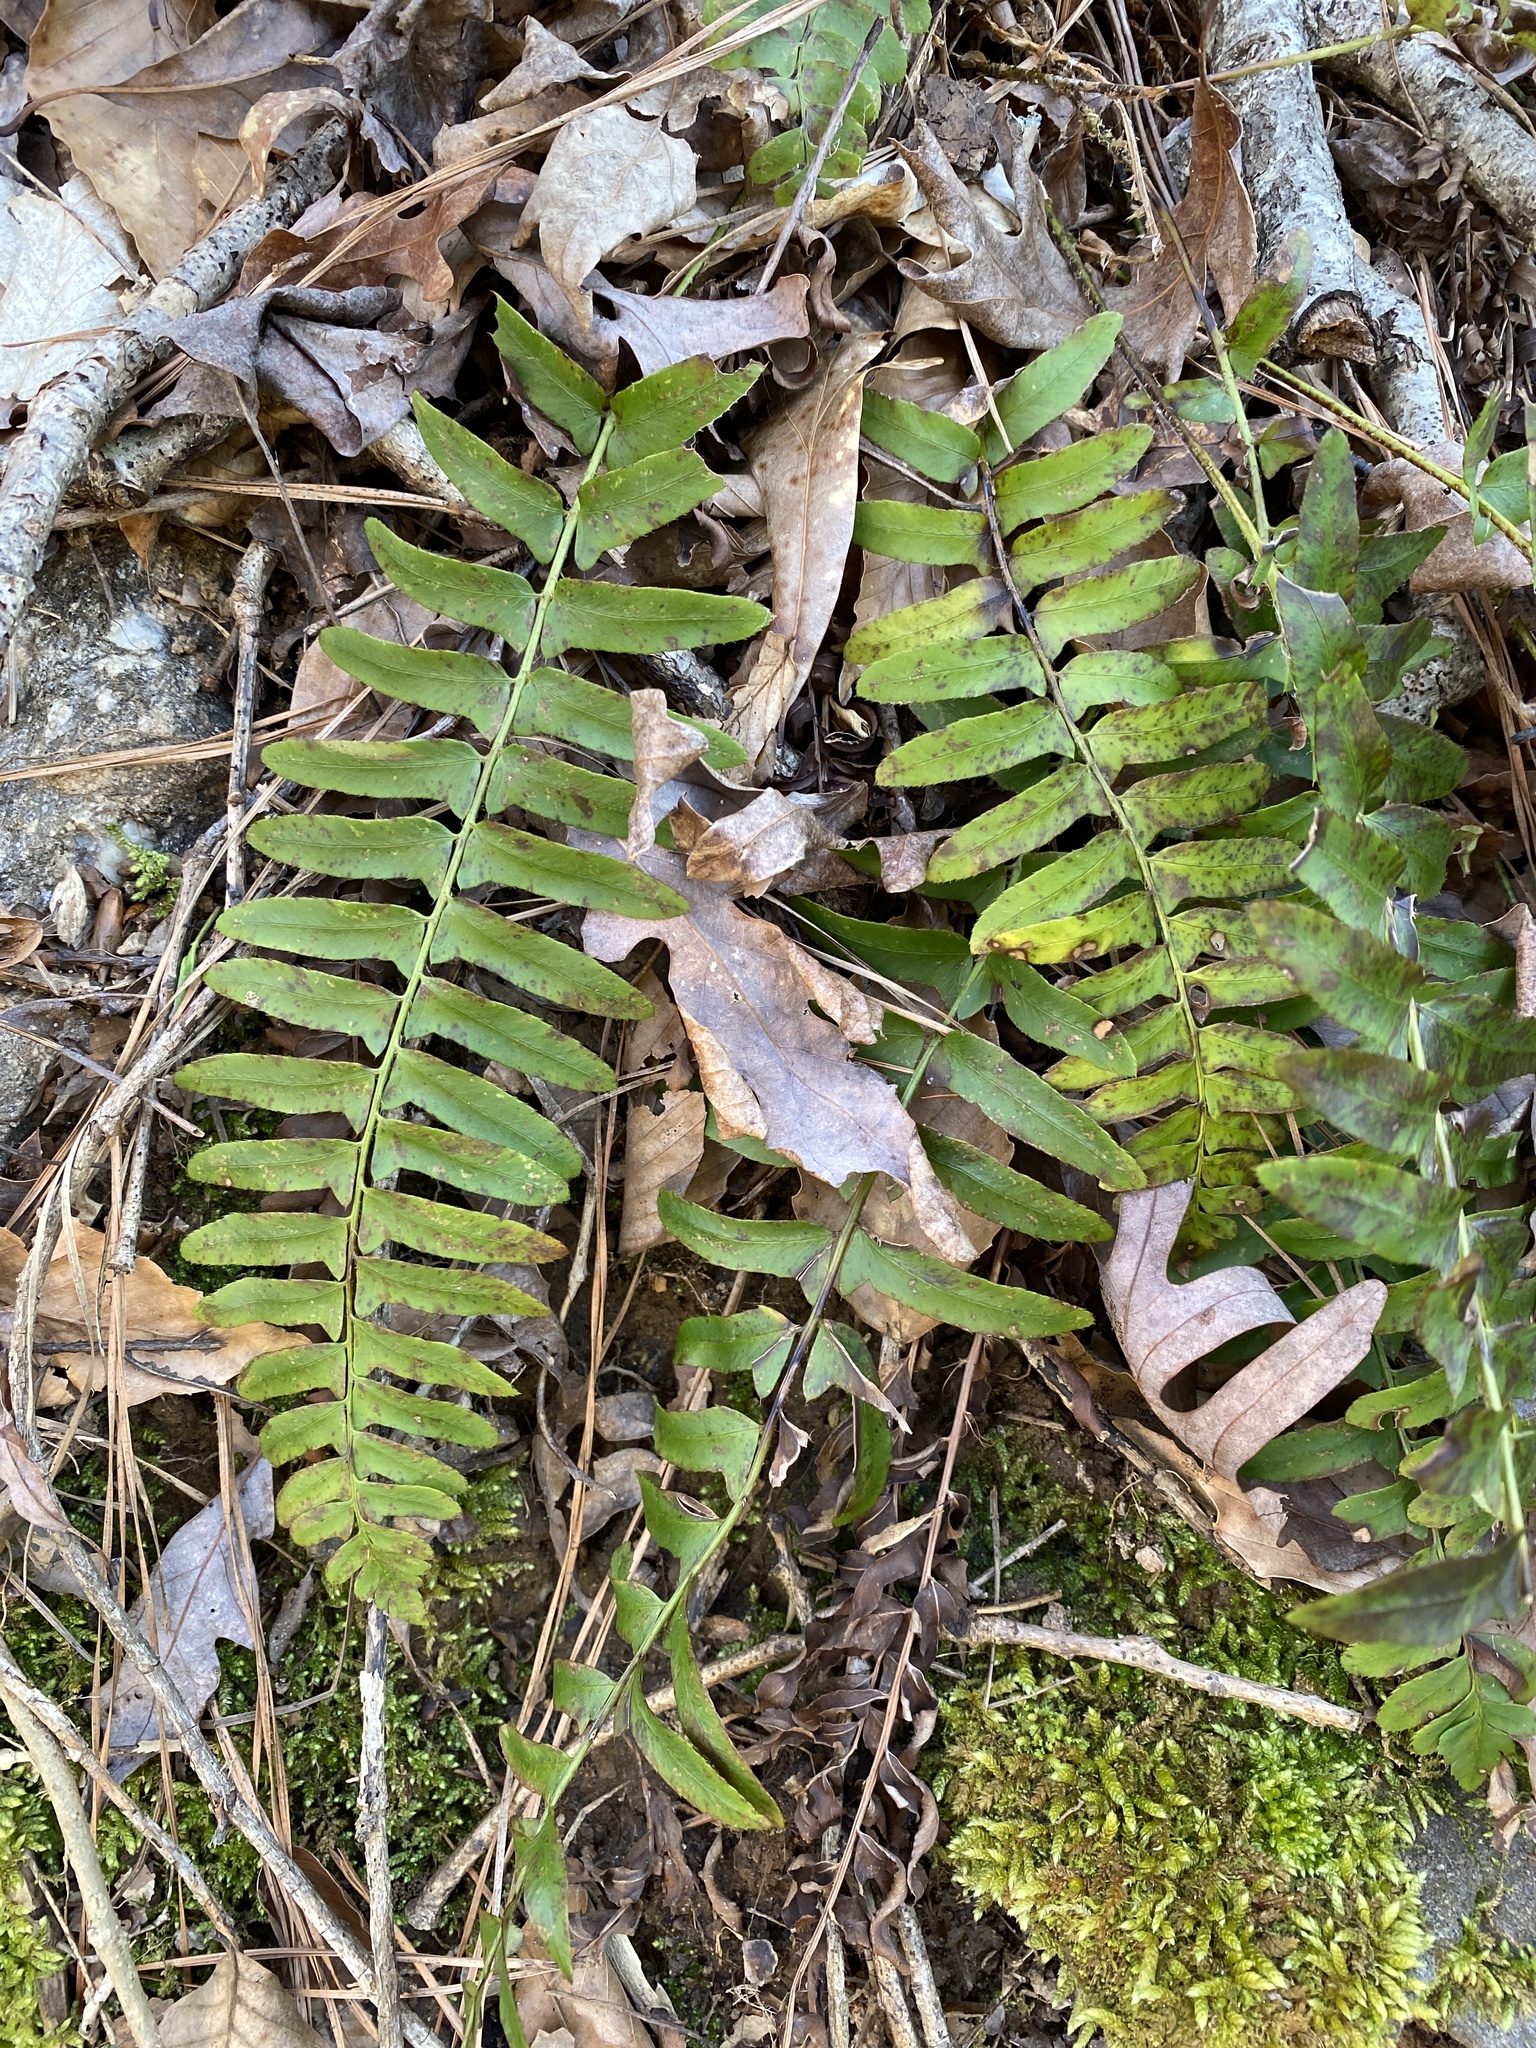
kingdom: Plantae
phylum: Tracheophyta
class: Polypodiopsida
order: Polypodiales
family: Dryopteridaceae
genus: Polystichum
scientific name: Polystichum acrostichoides
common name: Christmas fern
